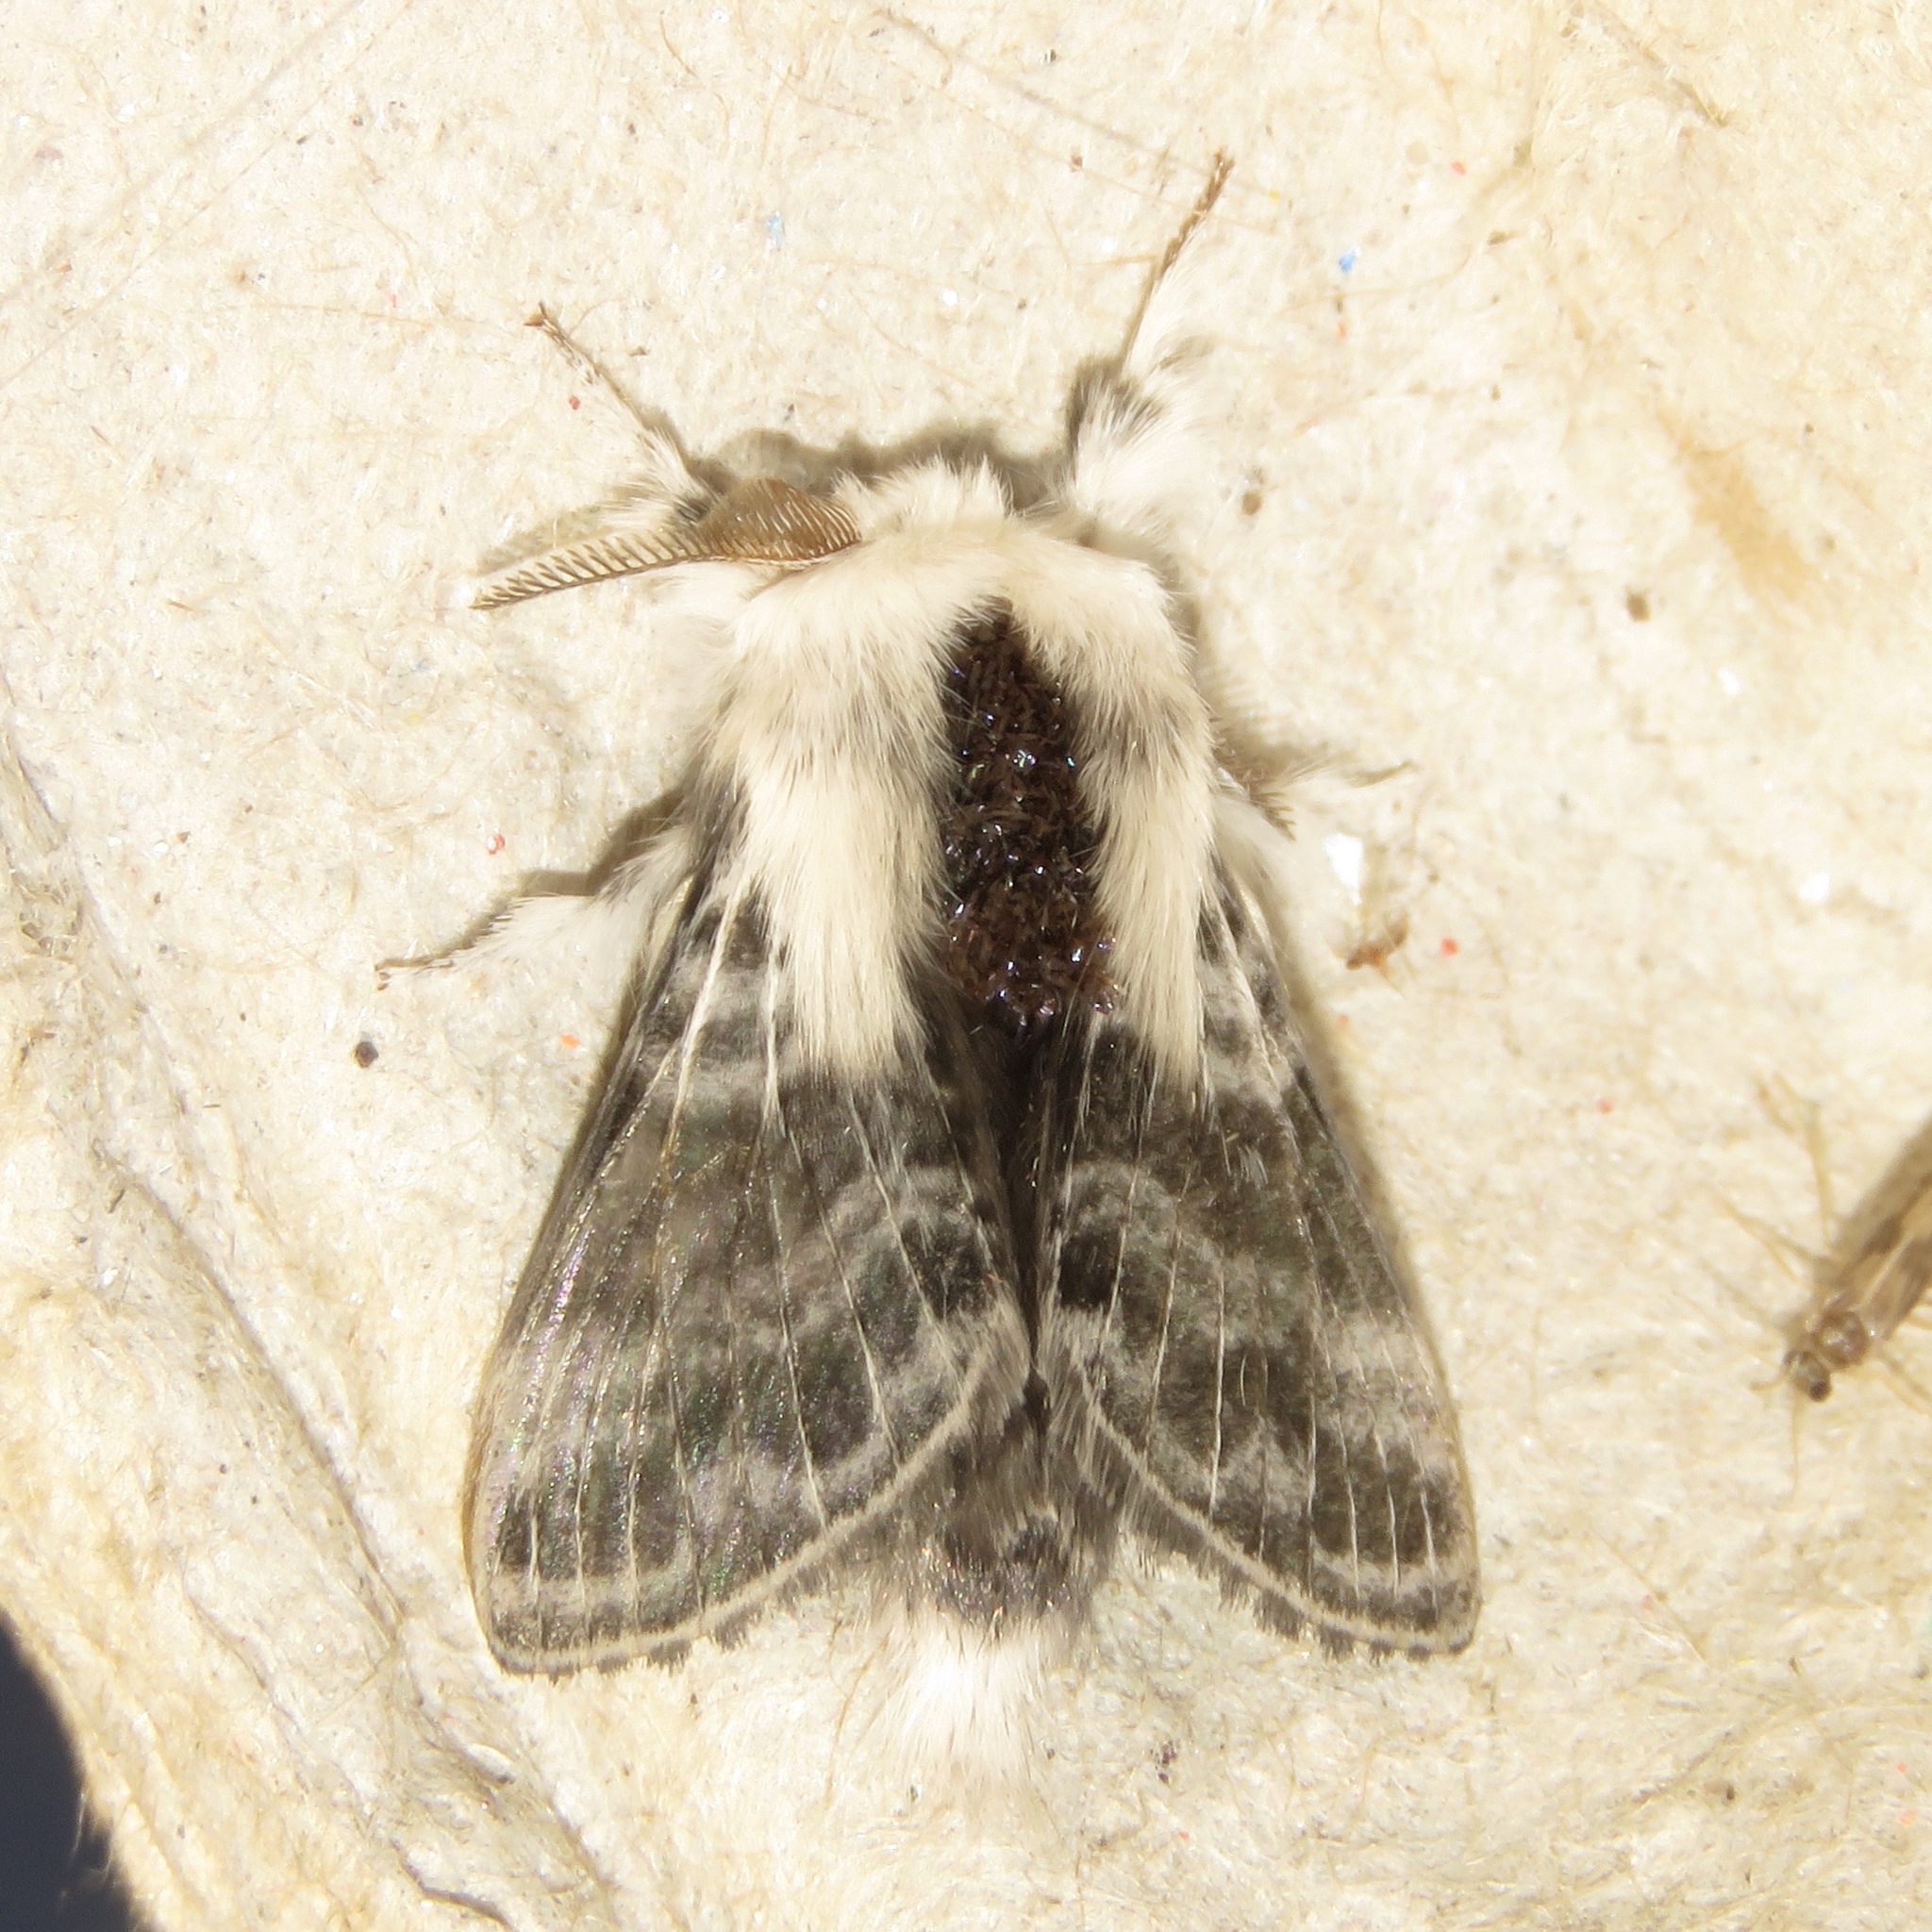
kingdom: Animalia
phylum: Arthropoda
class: Insecta
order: Lepidoptera
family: Lasiocampidae
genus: Tolype
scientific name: Tolype velleda
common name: Large tolype moth
